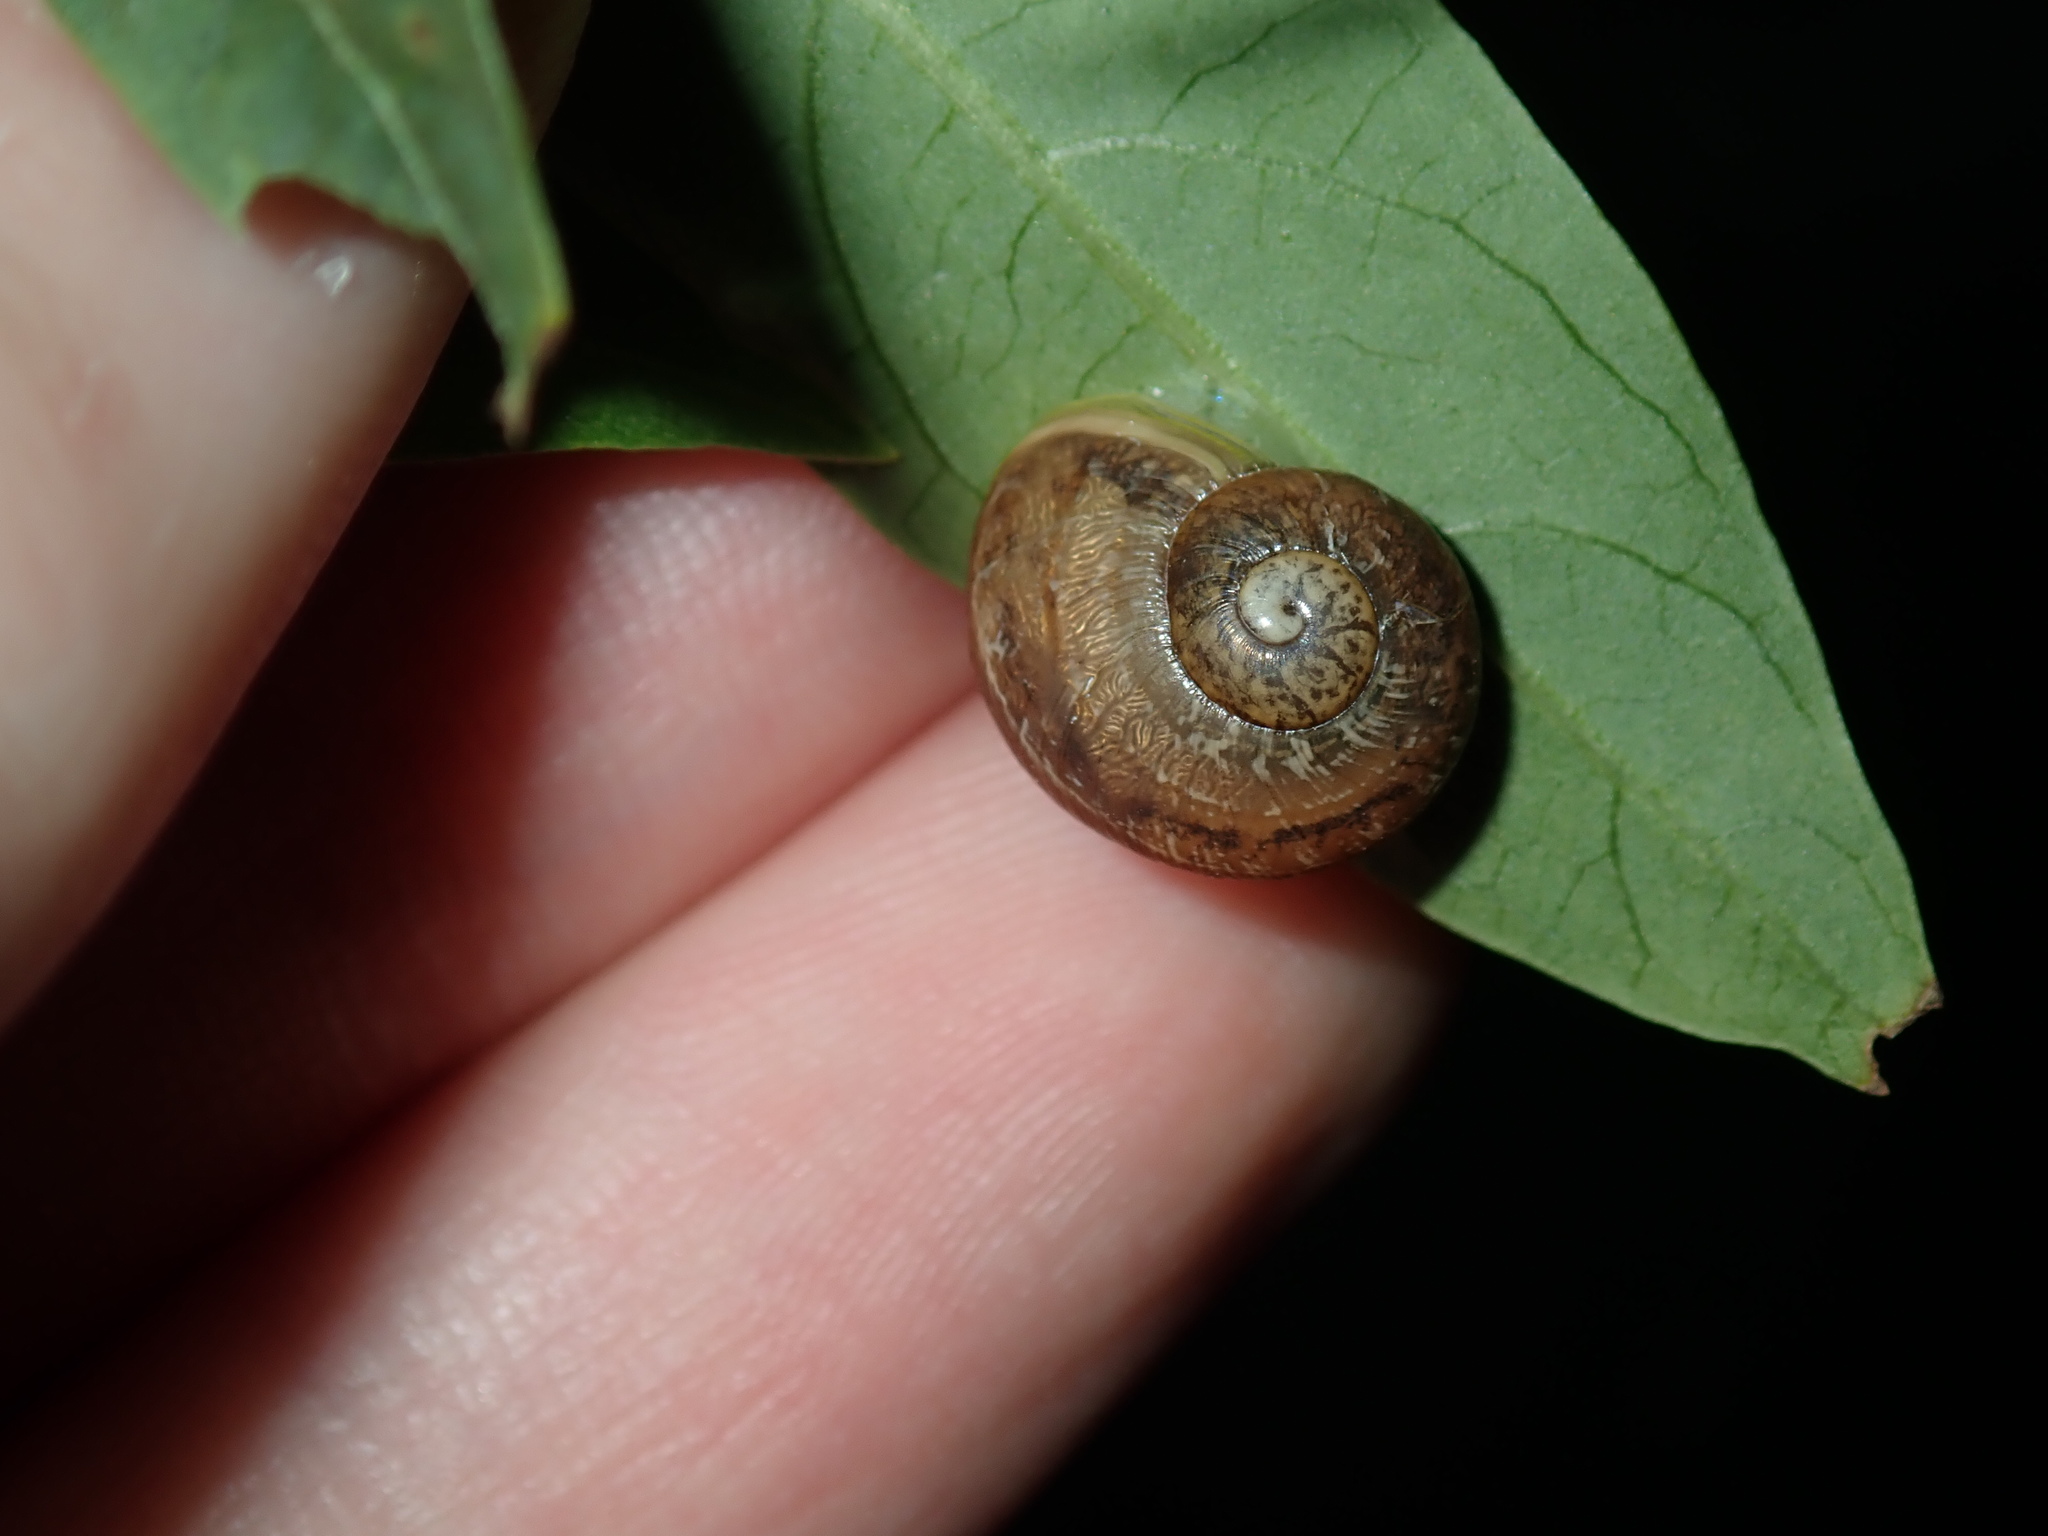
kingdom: Animalia
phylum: Mollusca
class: Gastropoda
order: Stylommatophora
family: Helicidae
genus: Cornu
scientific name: Cornu aspersum
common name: Brown garden snail
